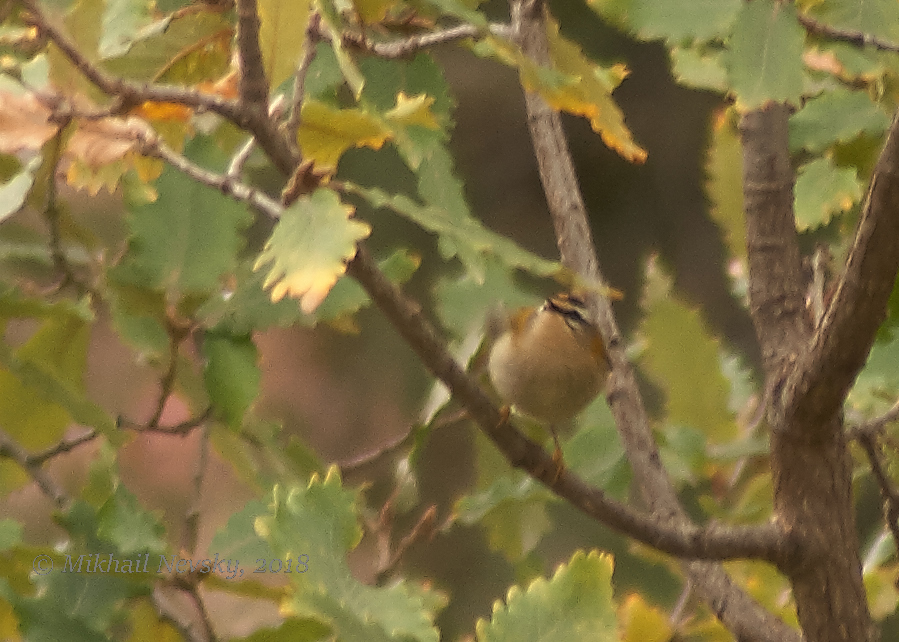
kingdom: Animalia
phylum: Chordata
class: Aves
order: Passeriformes
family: Regulidae
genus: Regulus
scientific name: Regulus ignicapilla
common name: Firecrest
